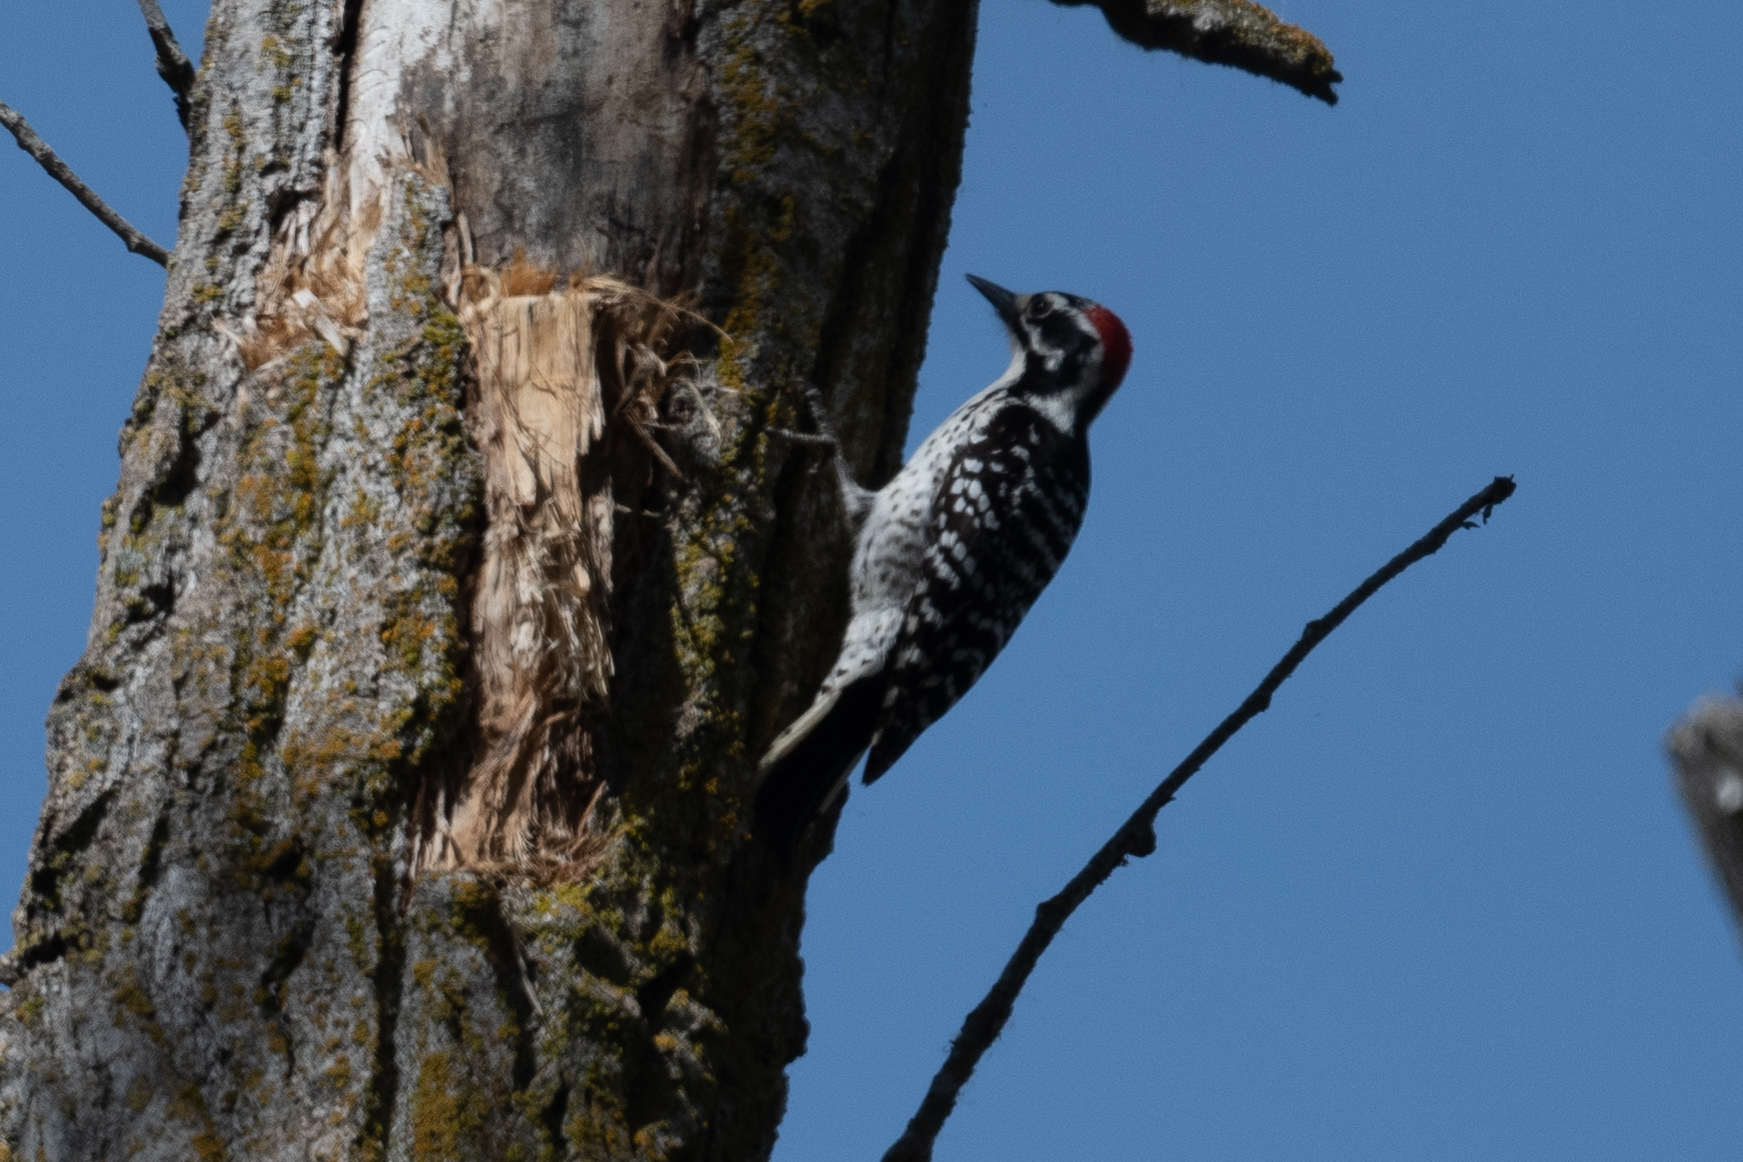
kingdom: Animalia
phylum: Chordata
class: Aves
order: Piciformes
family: Picidae
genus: Dryobates
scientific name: Dryobates nuttallii
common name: Nuttall's woodpecker
